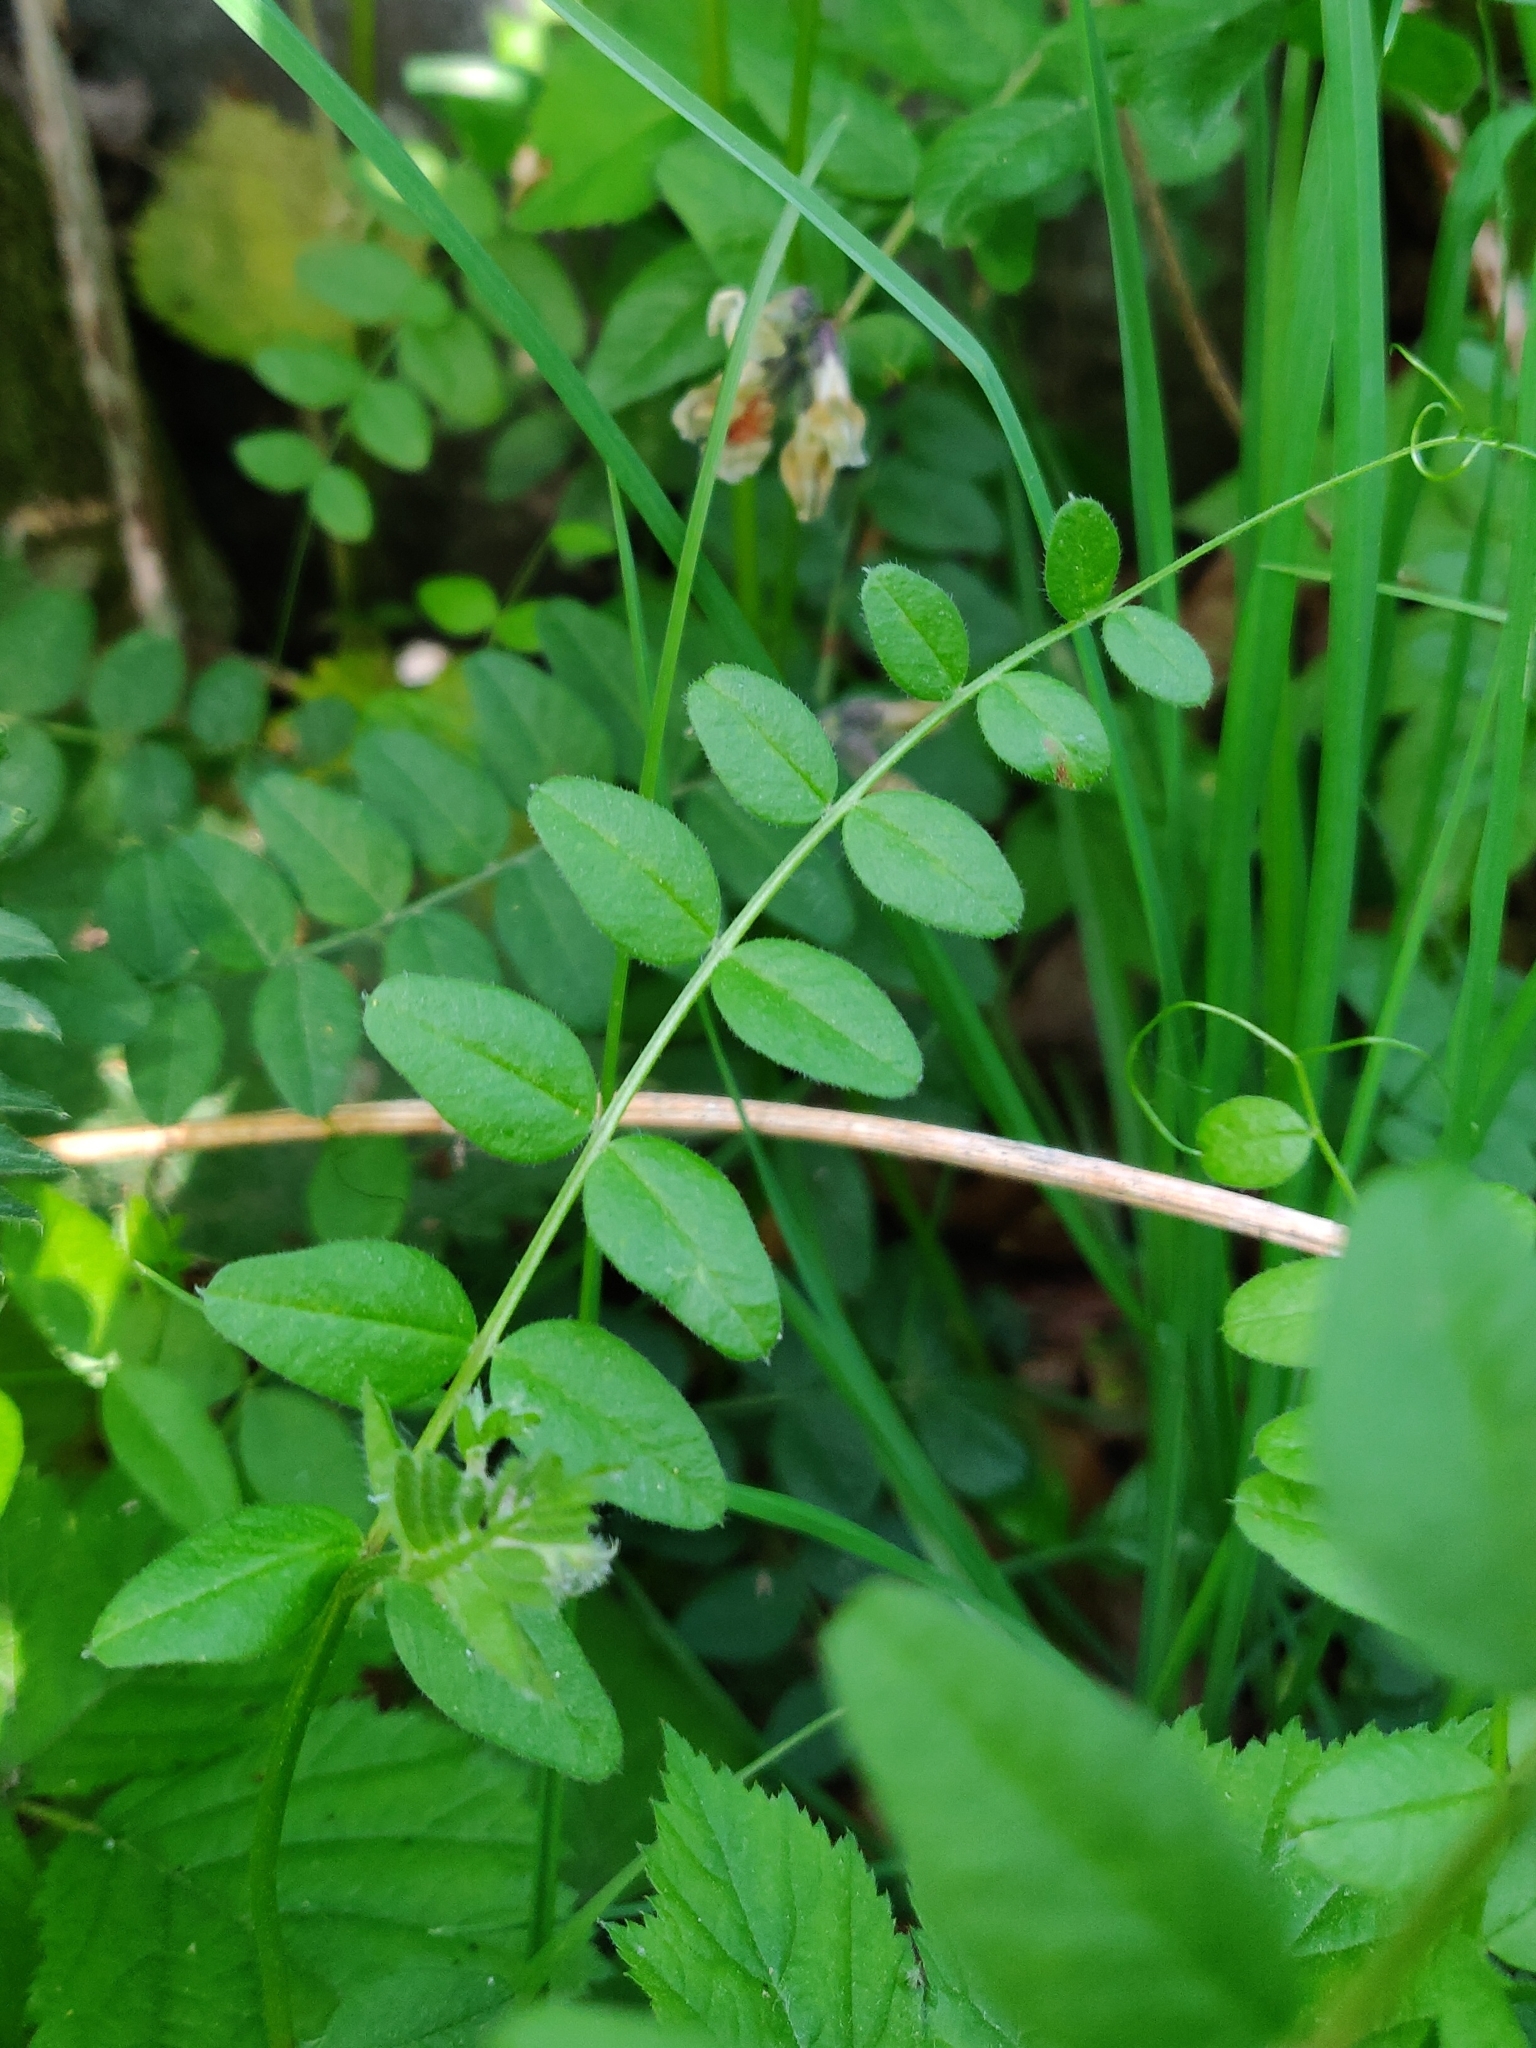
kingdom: Plantae
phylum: Tracheophyta
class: Magnoliopsida
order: Fabales
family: Fabaceae
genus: Vicia
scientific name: Vicia sepium
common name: Bush vetch
